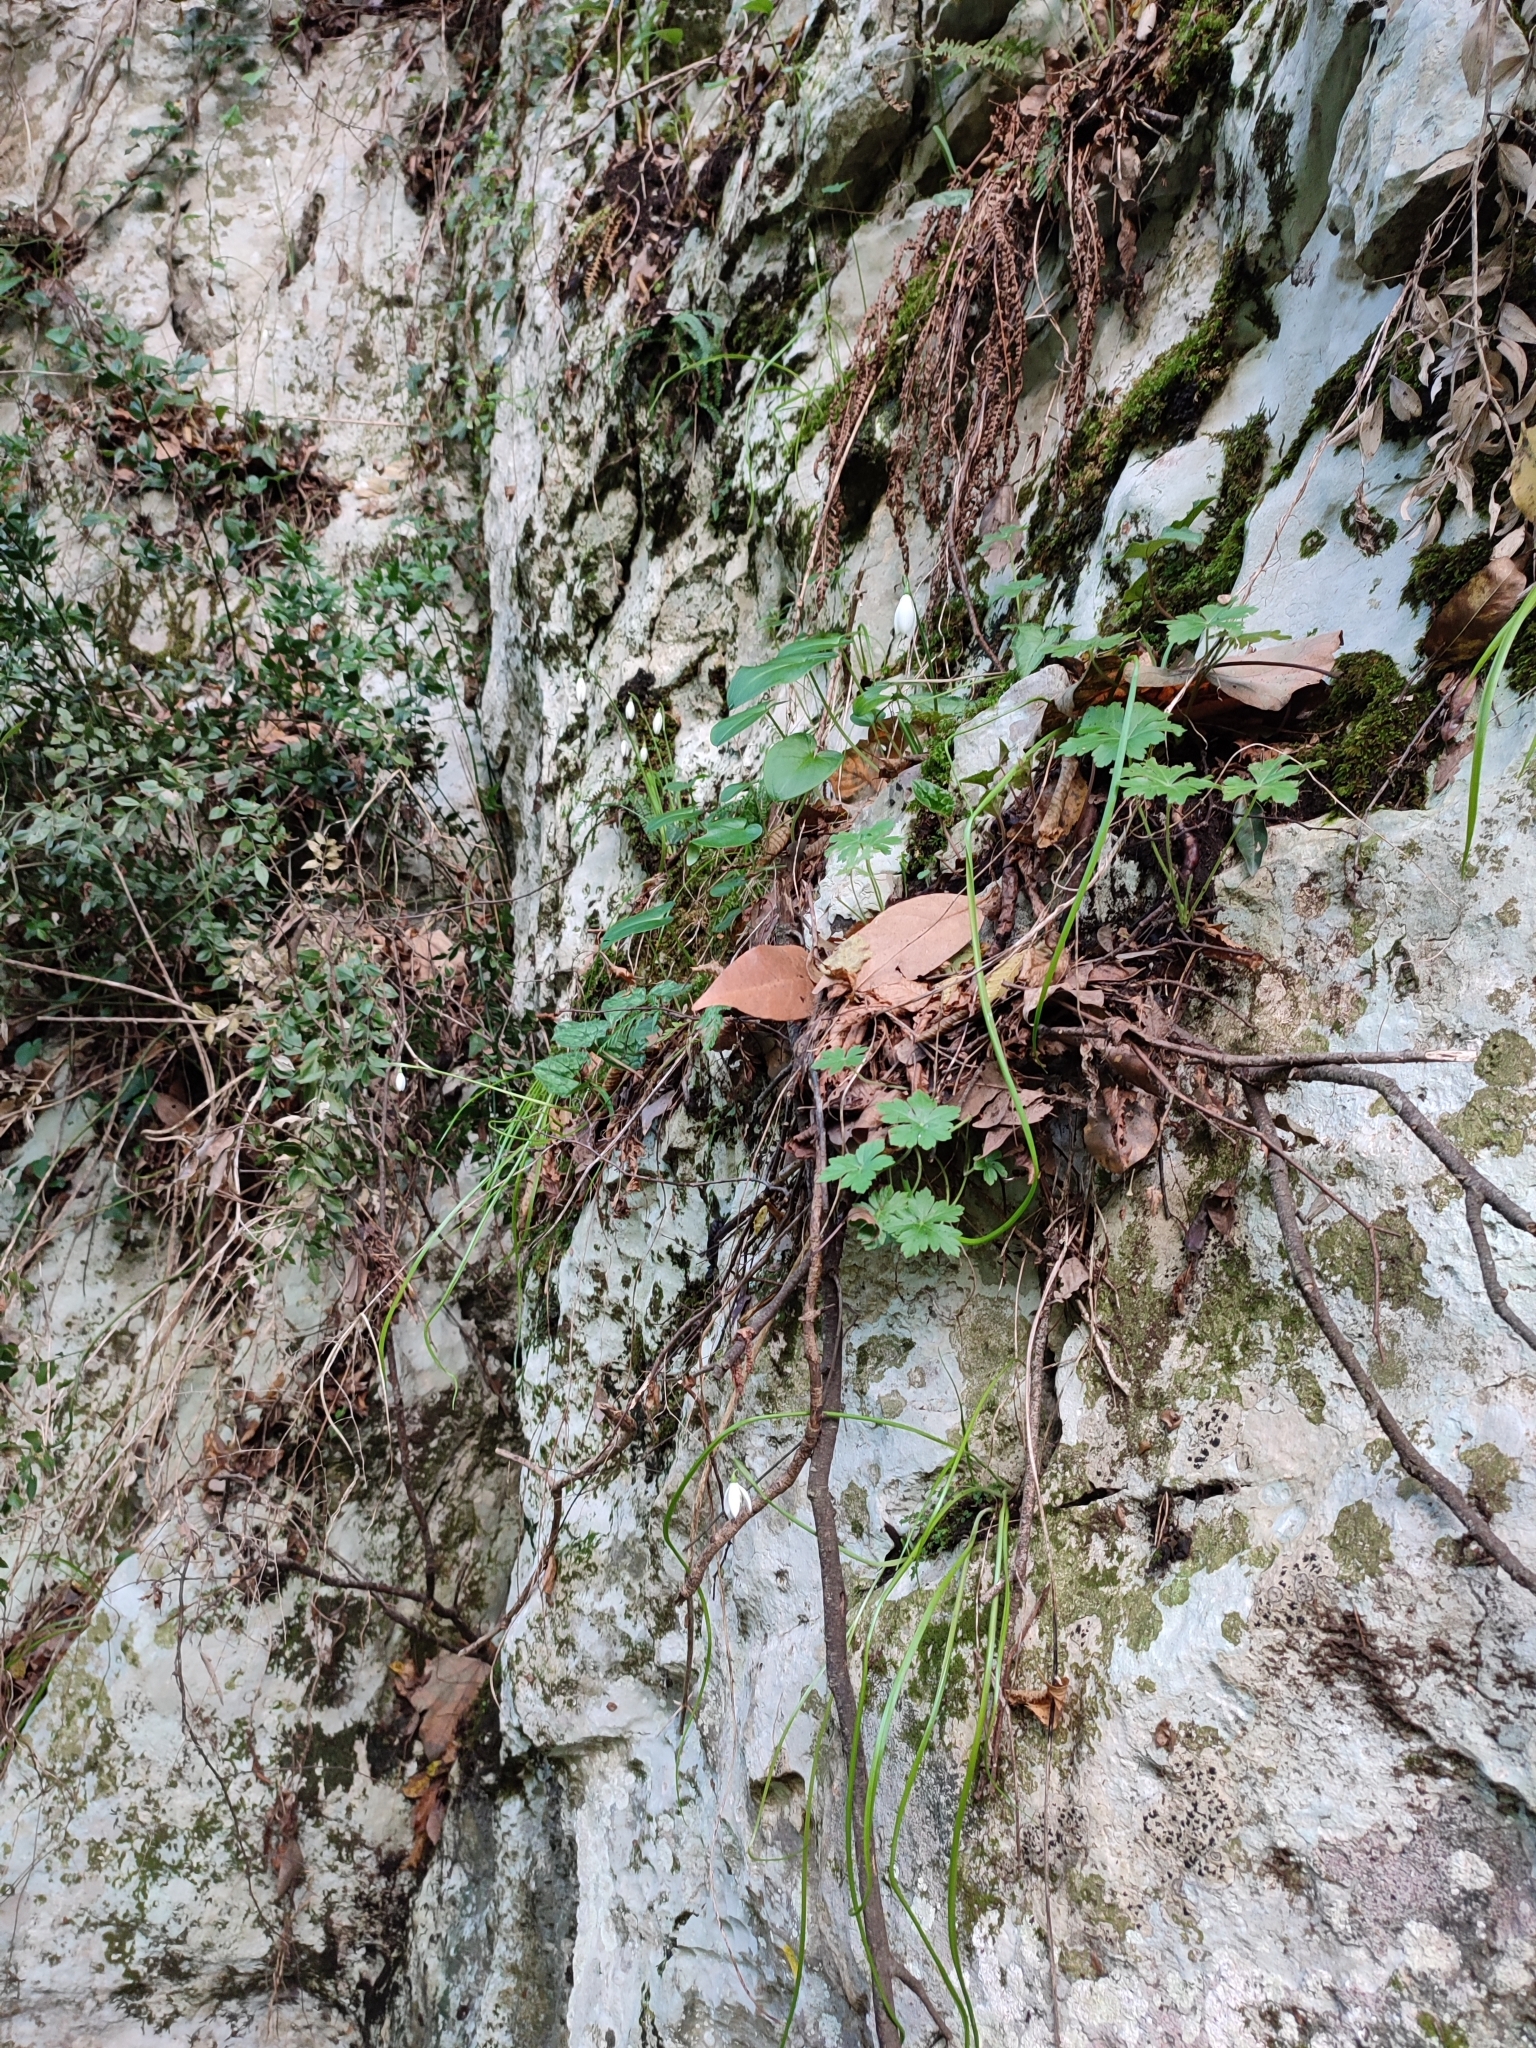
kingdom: Plantae
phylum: Tracheophyta
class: Liliopsida
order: Asparagales
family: Amaryllidaceae
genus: Galanthus
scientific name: Galanthus reginae-olgae
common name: Queen olga's snowdrop
